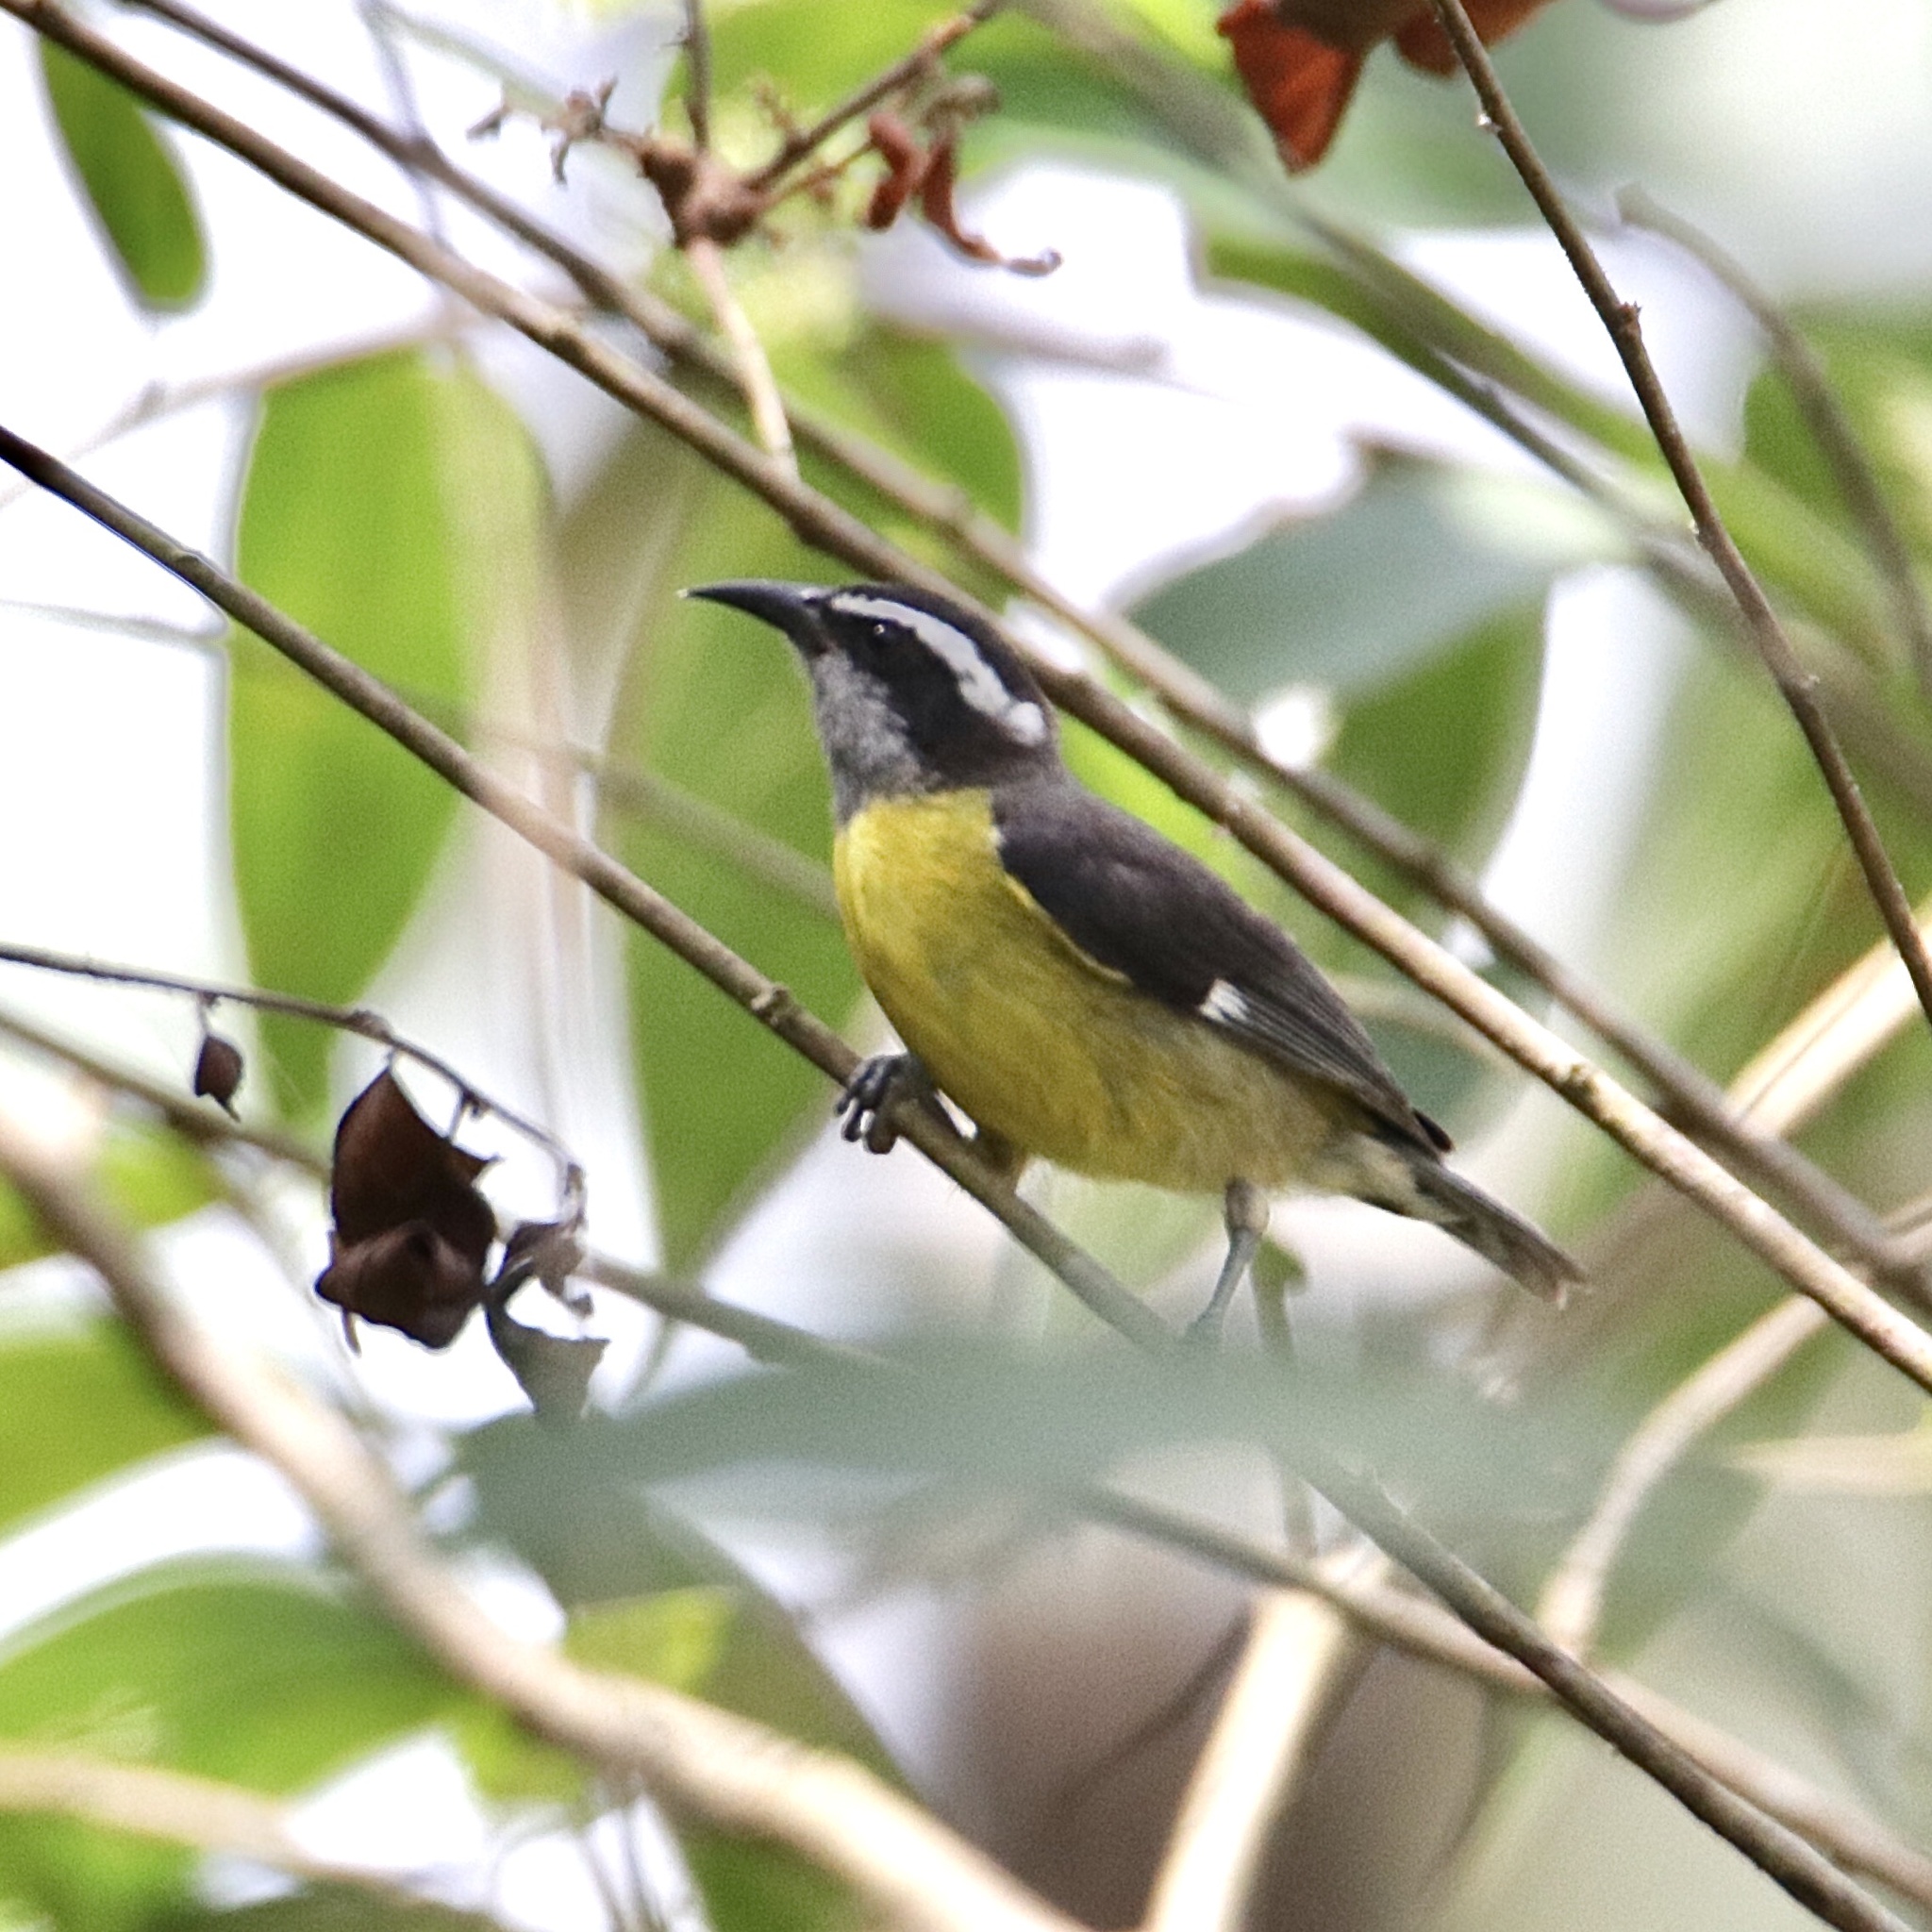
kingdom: Animalia
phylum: Chordata
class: Aves
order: Passeriformes
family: Thraupidae
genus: Coereba
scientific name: Coereba flaveola
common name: Bananaquit
